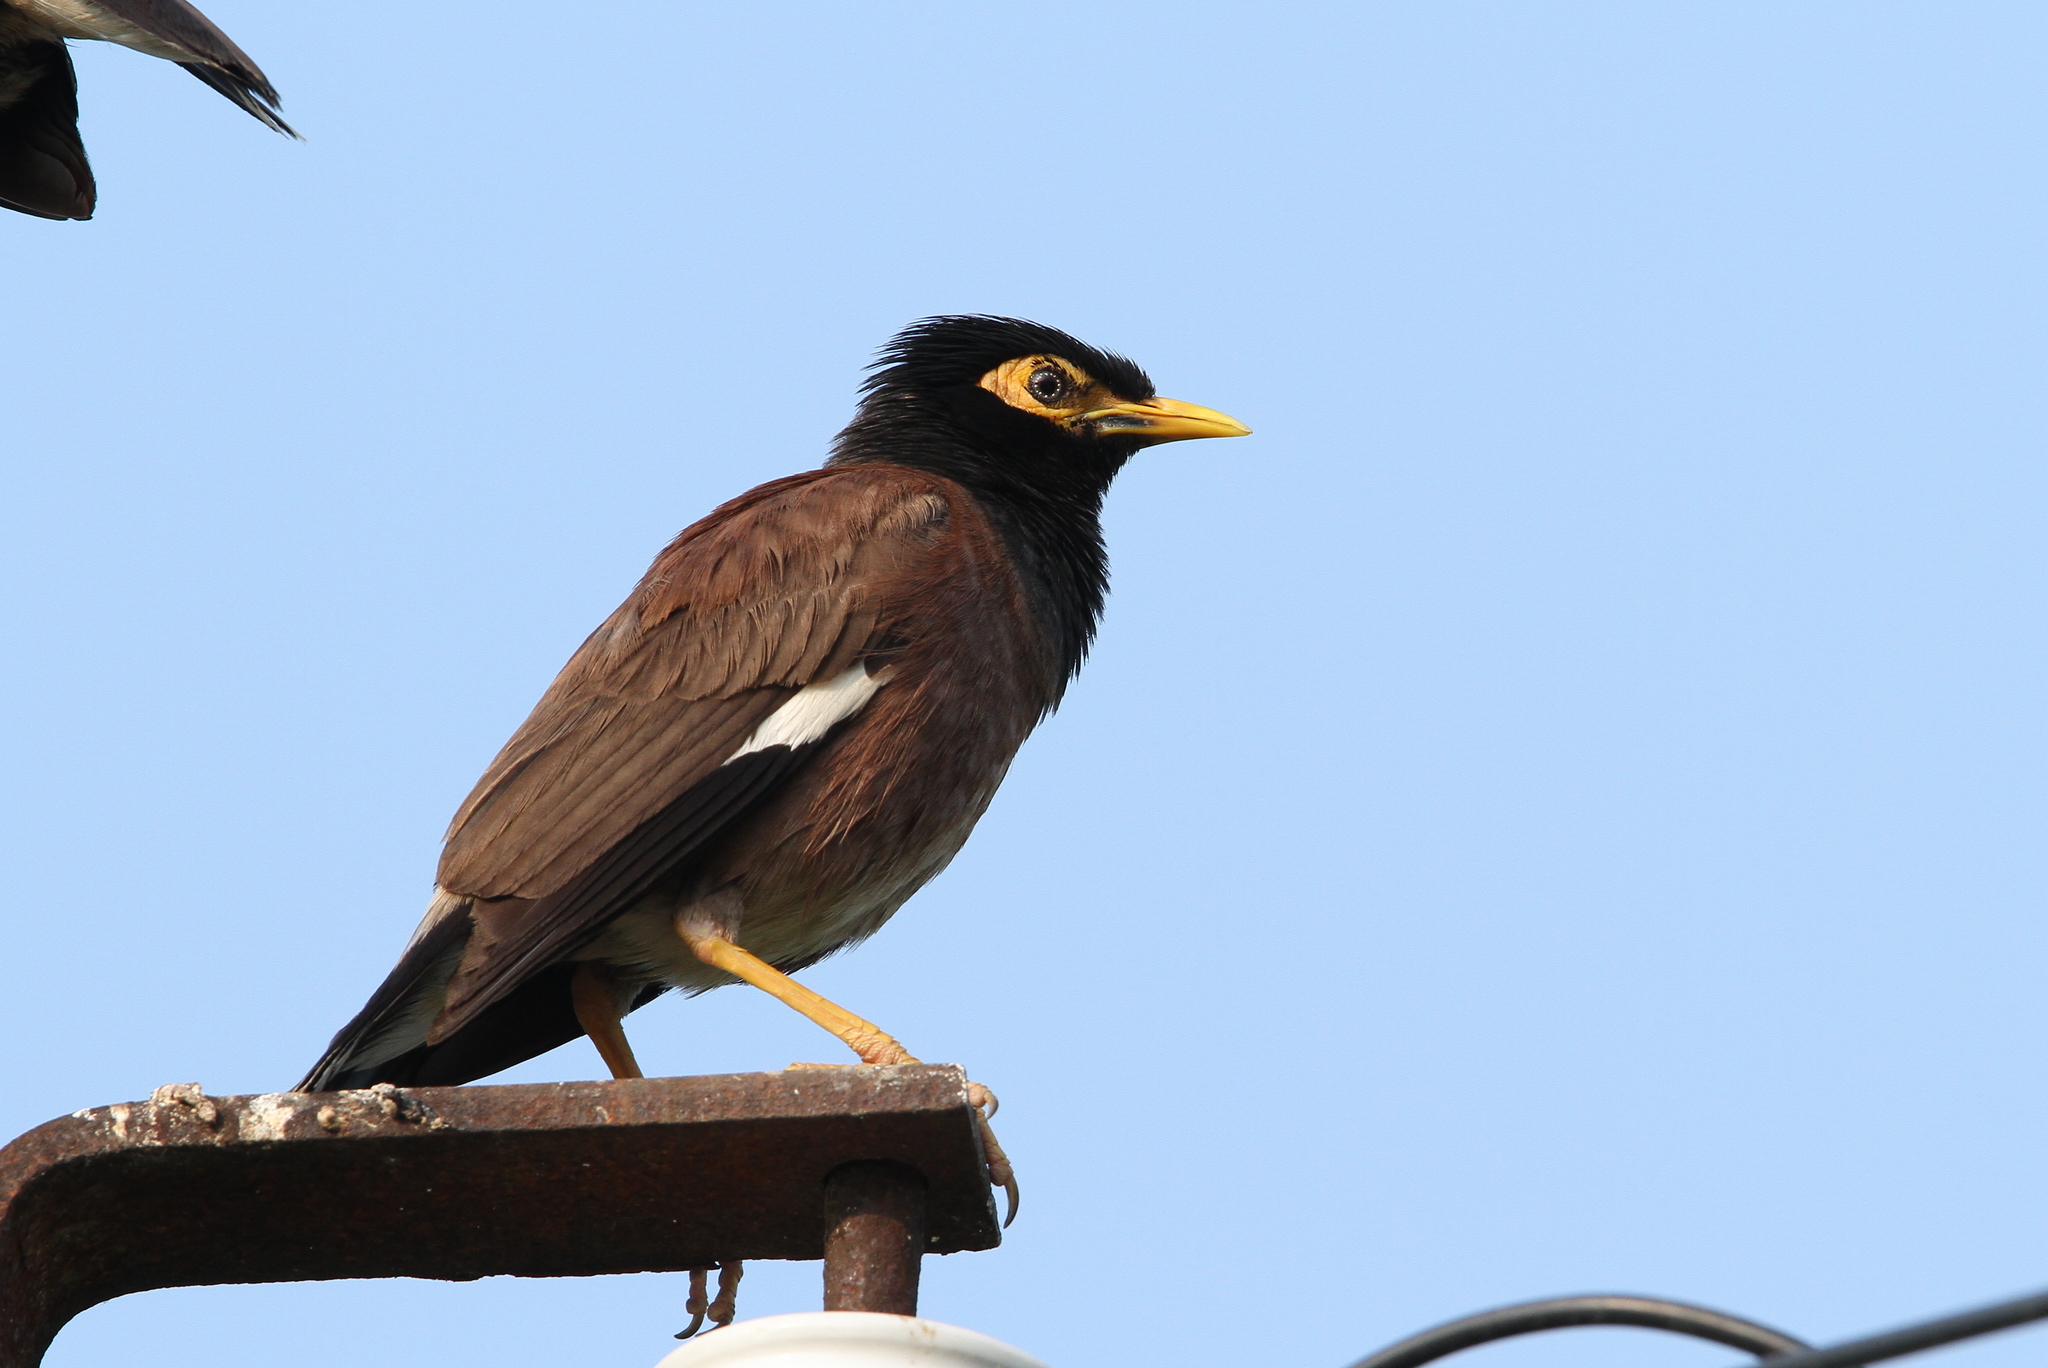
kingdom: Animalia
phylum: Chordata
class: Aves
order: Passeriformes
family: Sturnidae
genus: Acridotheres
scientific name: Acridotheres tristis
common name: Common myna
